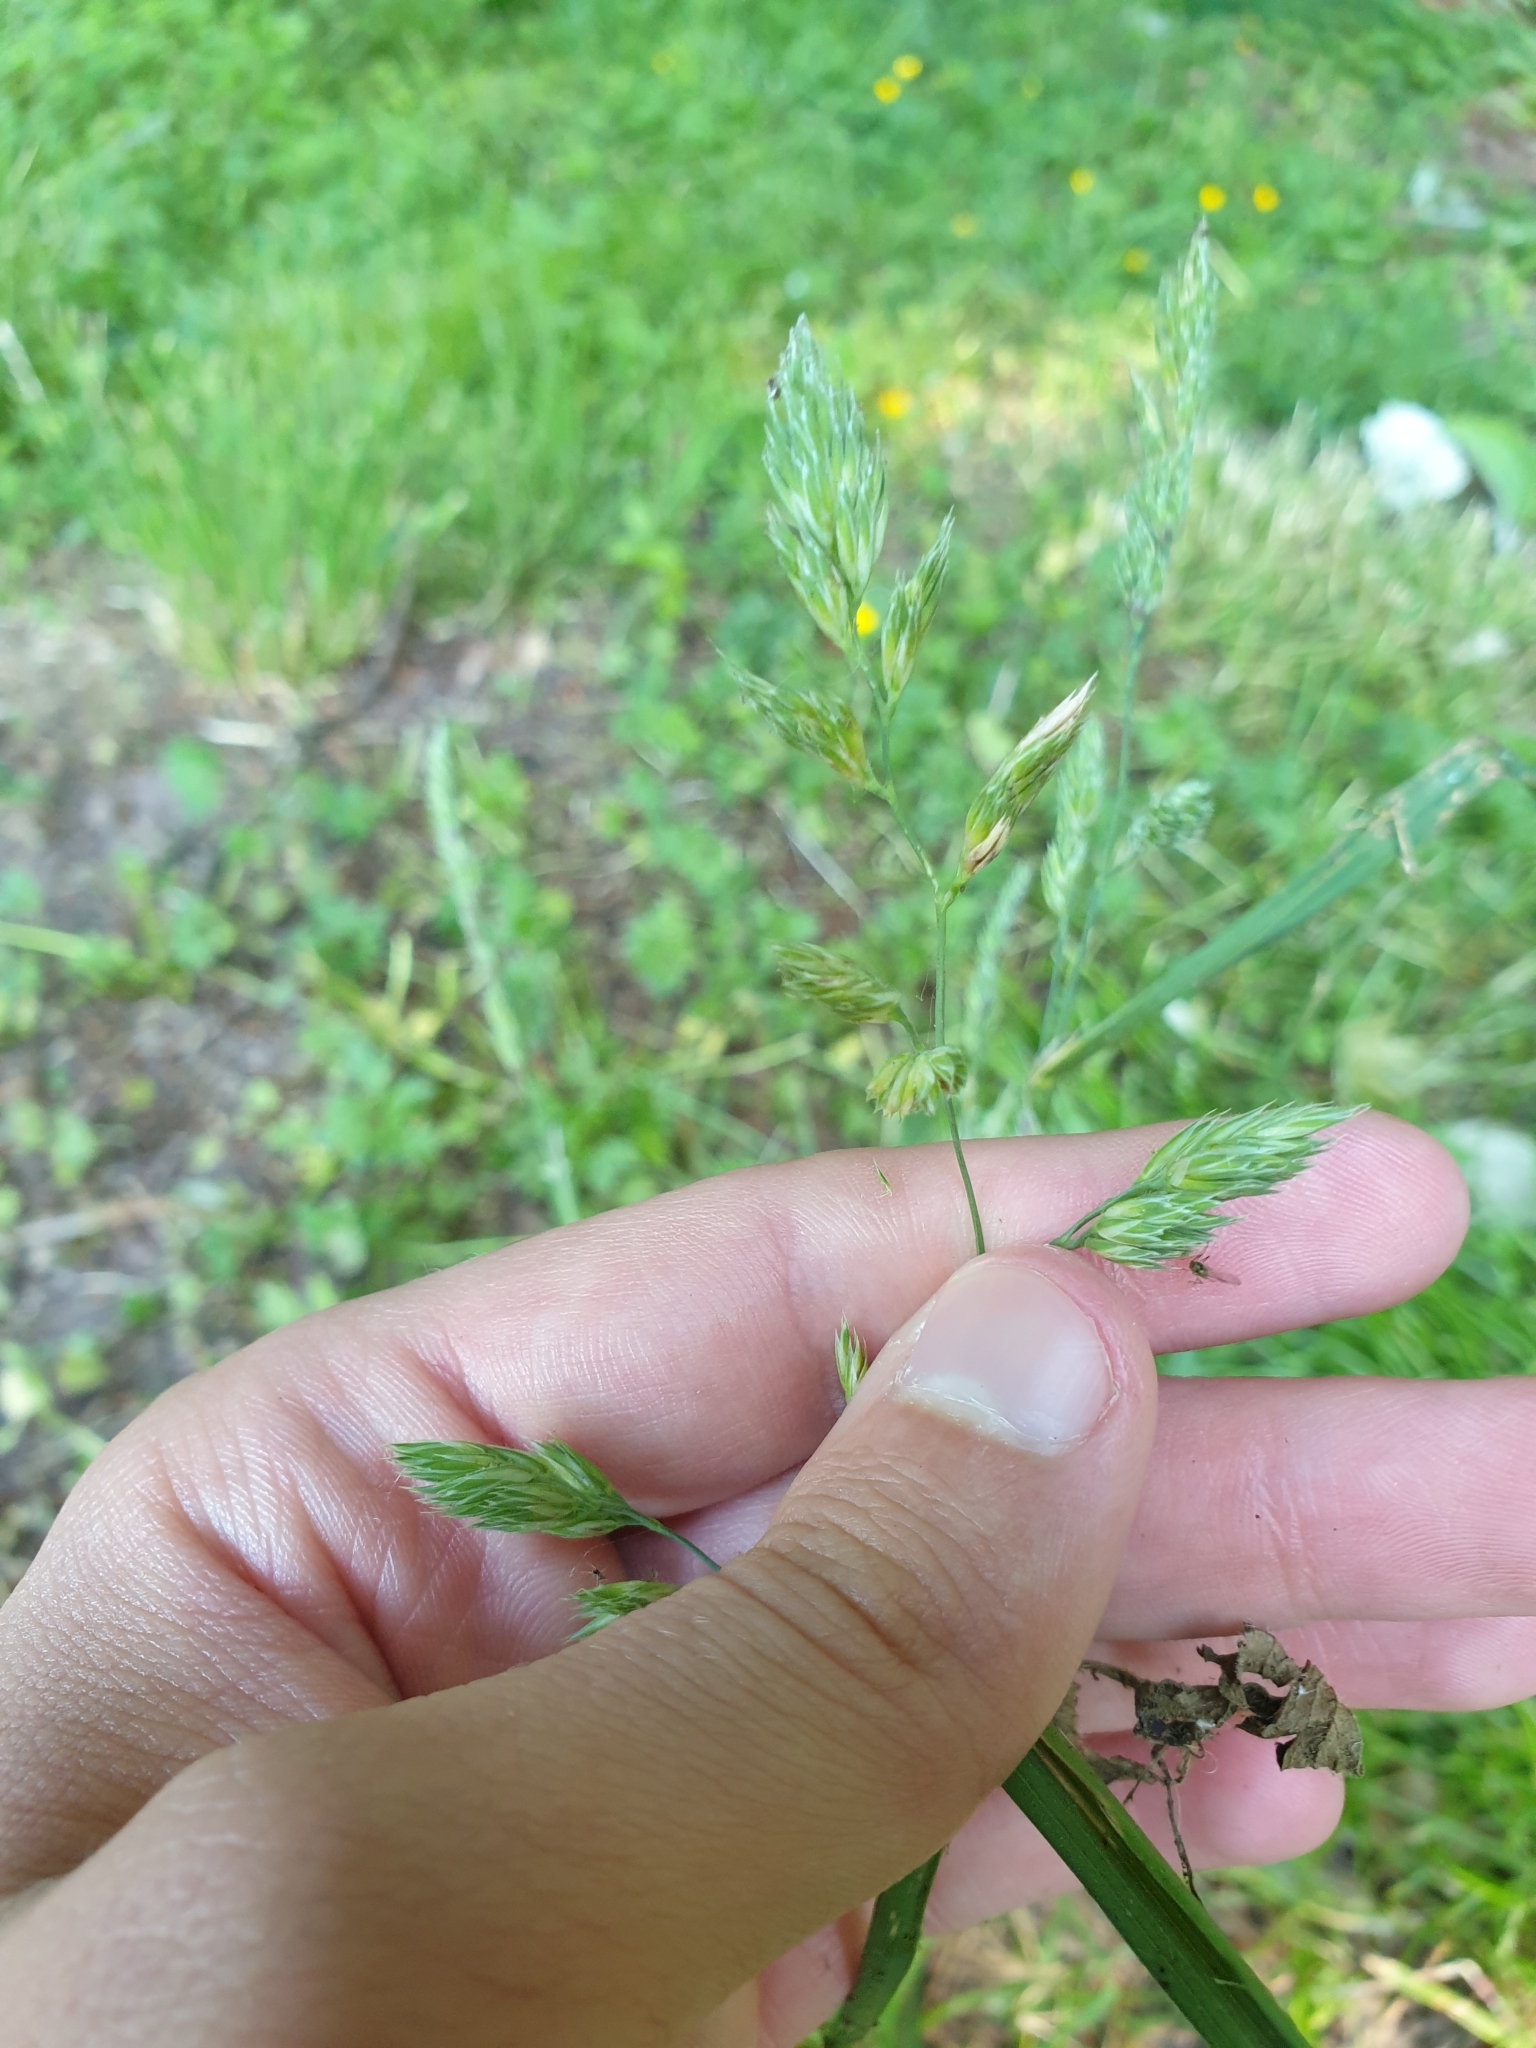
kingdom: Plantae
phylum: Tracheophyta
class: Liliopsida
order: Poales
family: Poaceae
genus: Dactylis
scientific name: Dactylis glomerata
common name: Orchardgrass
